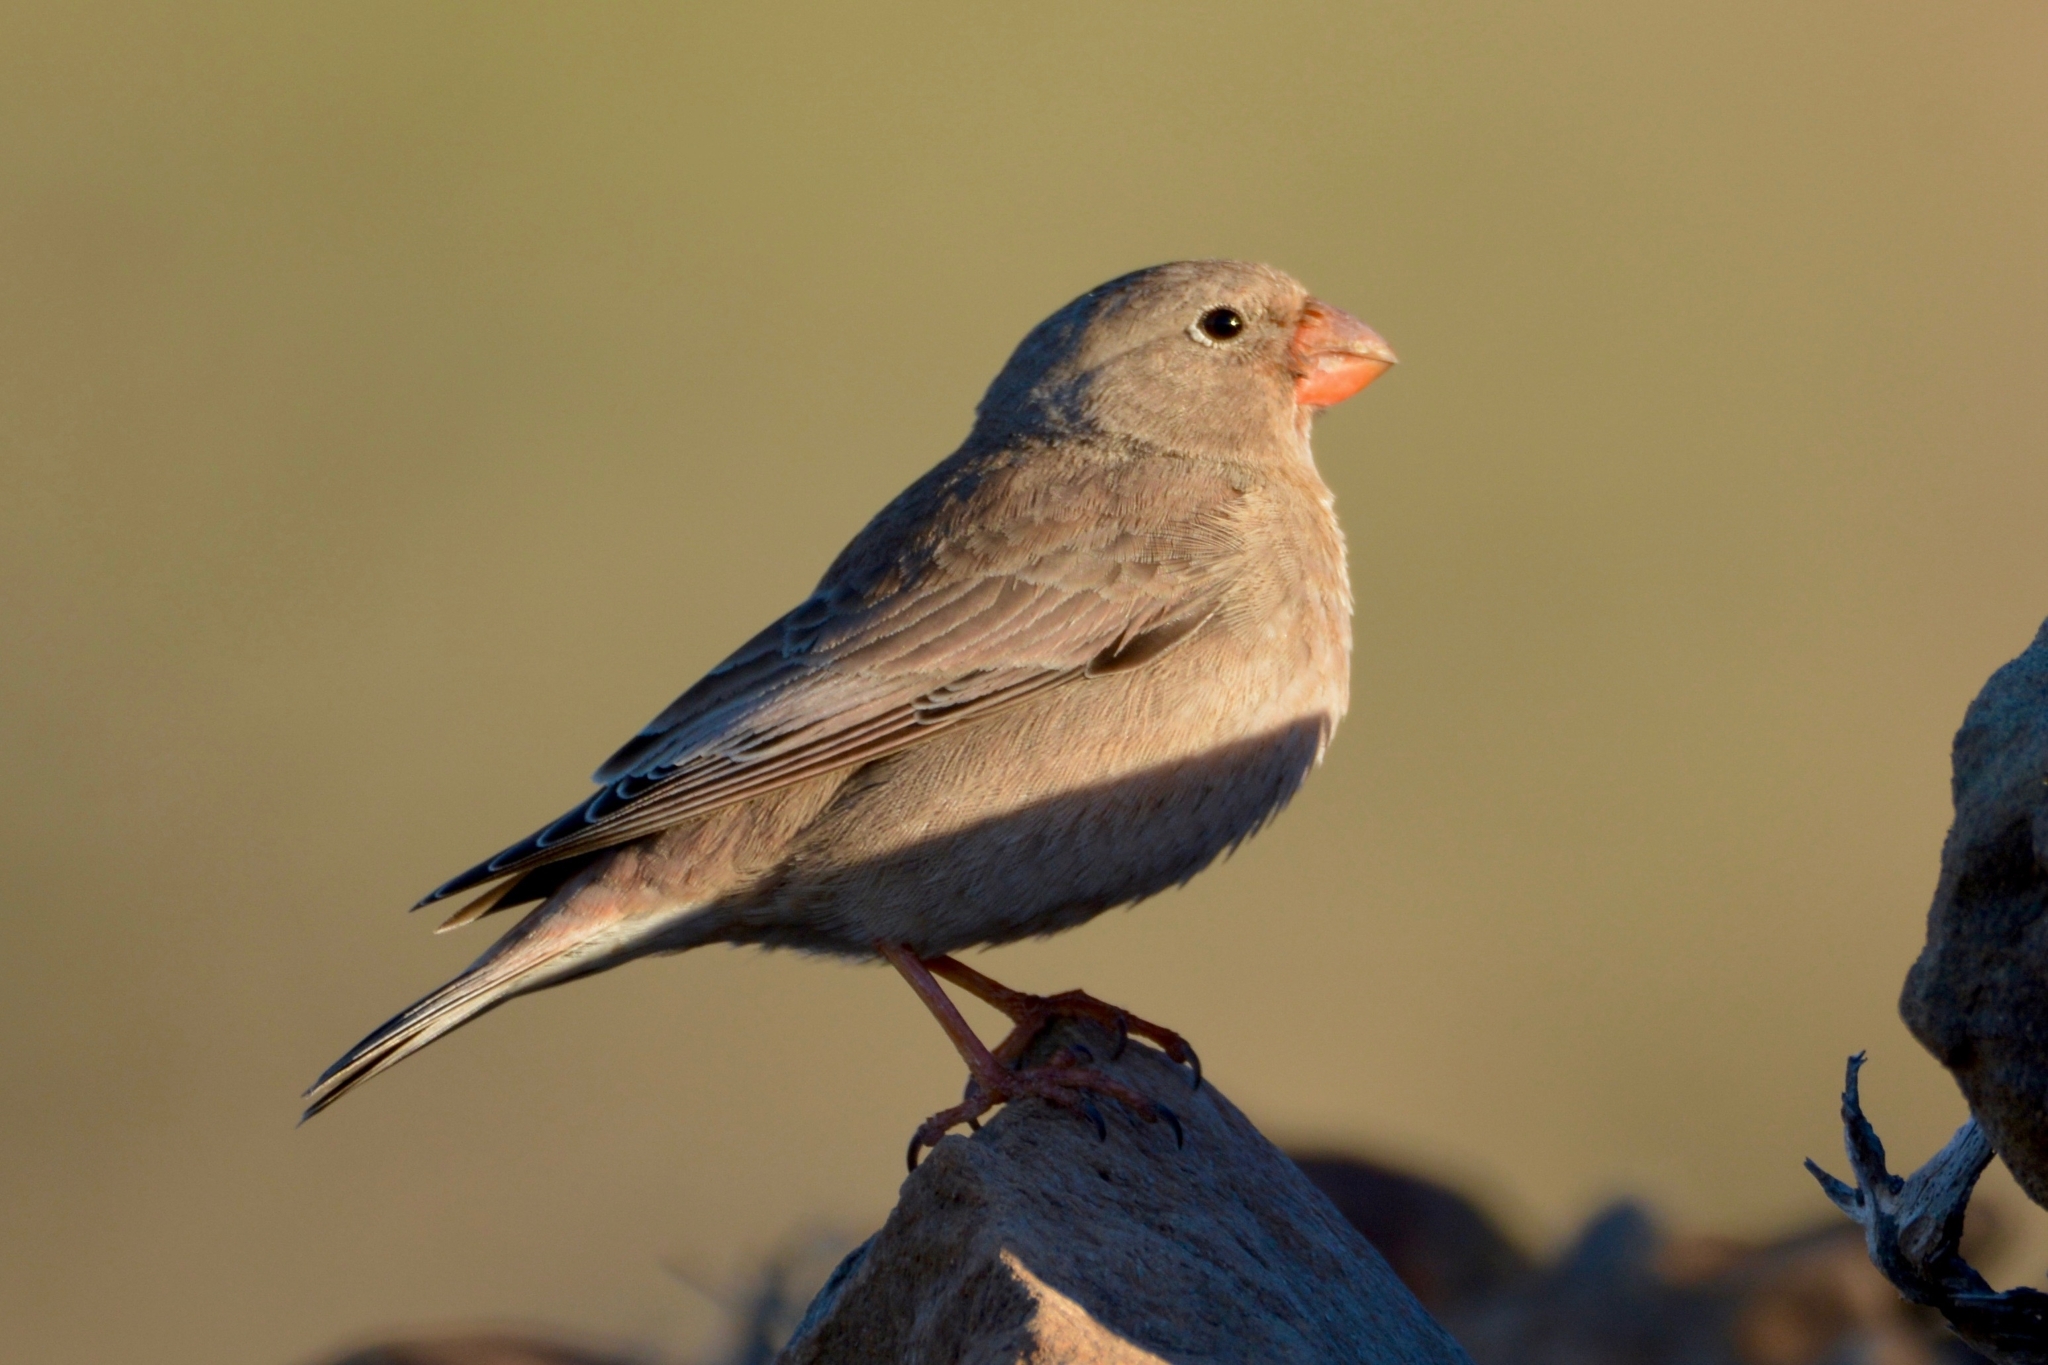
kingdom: Animalia
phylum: Chordata
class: Aves
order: Passeriformes
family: Fringillidae
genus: Bucanetes
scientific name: Bucanetes githagineus
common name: Trumpeter finch
